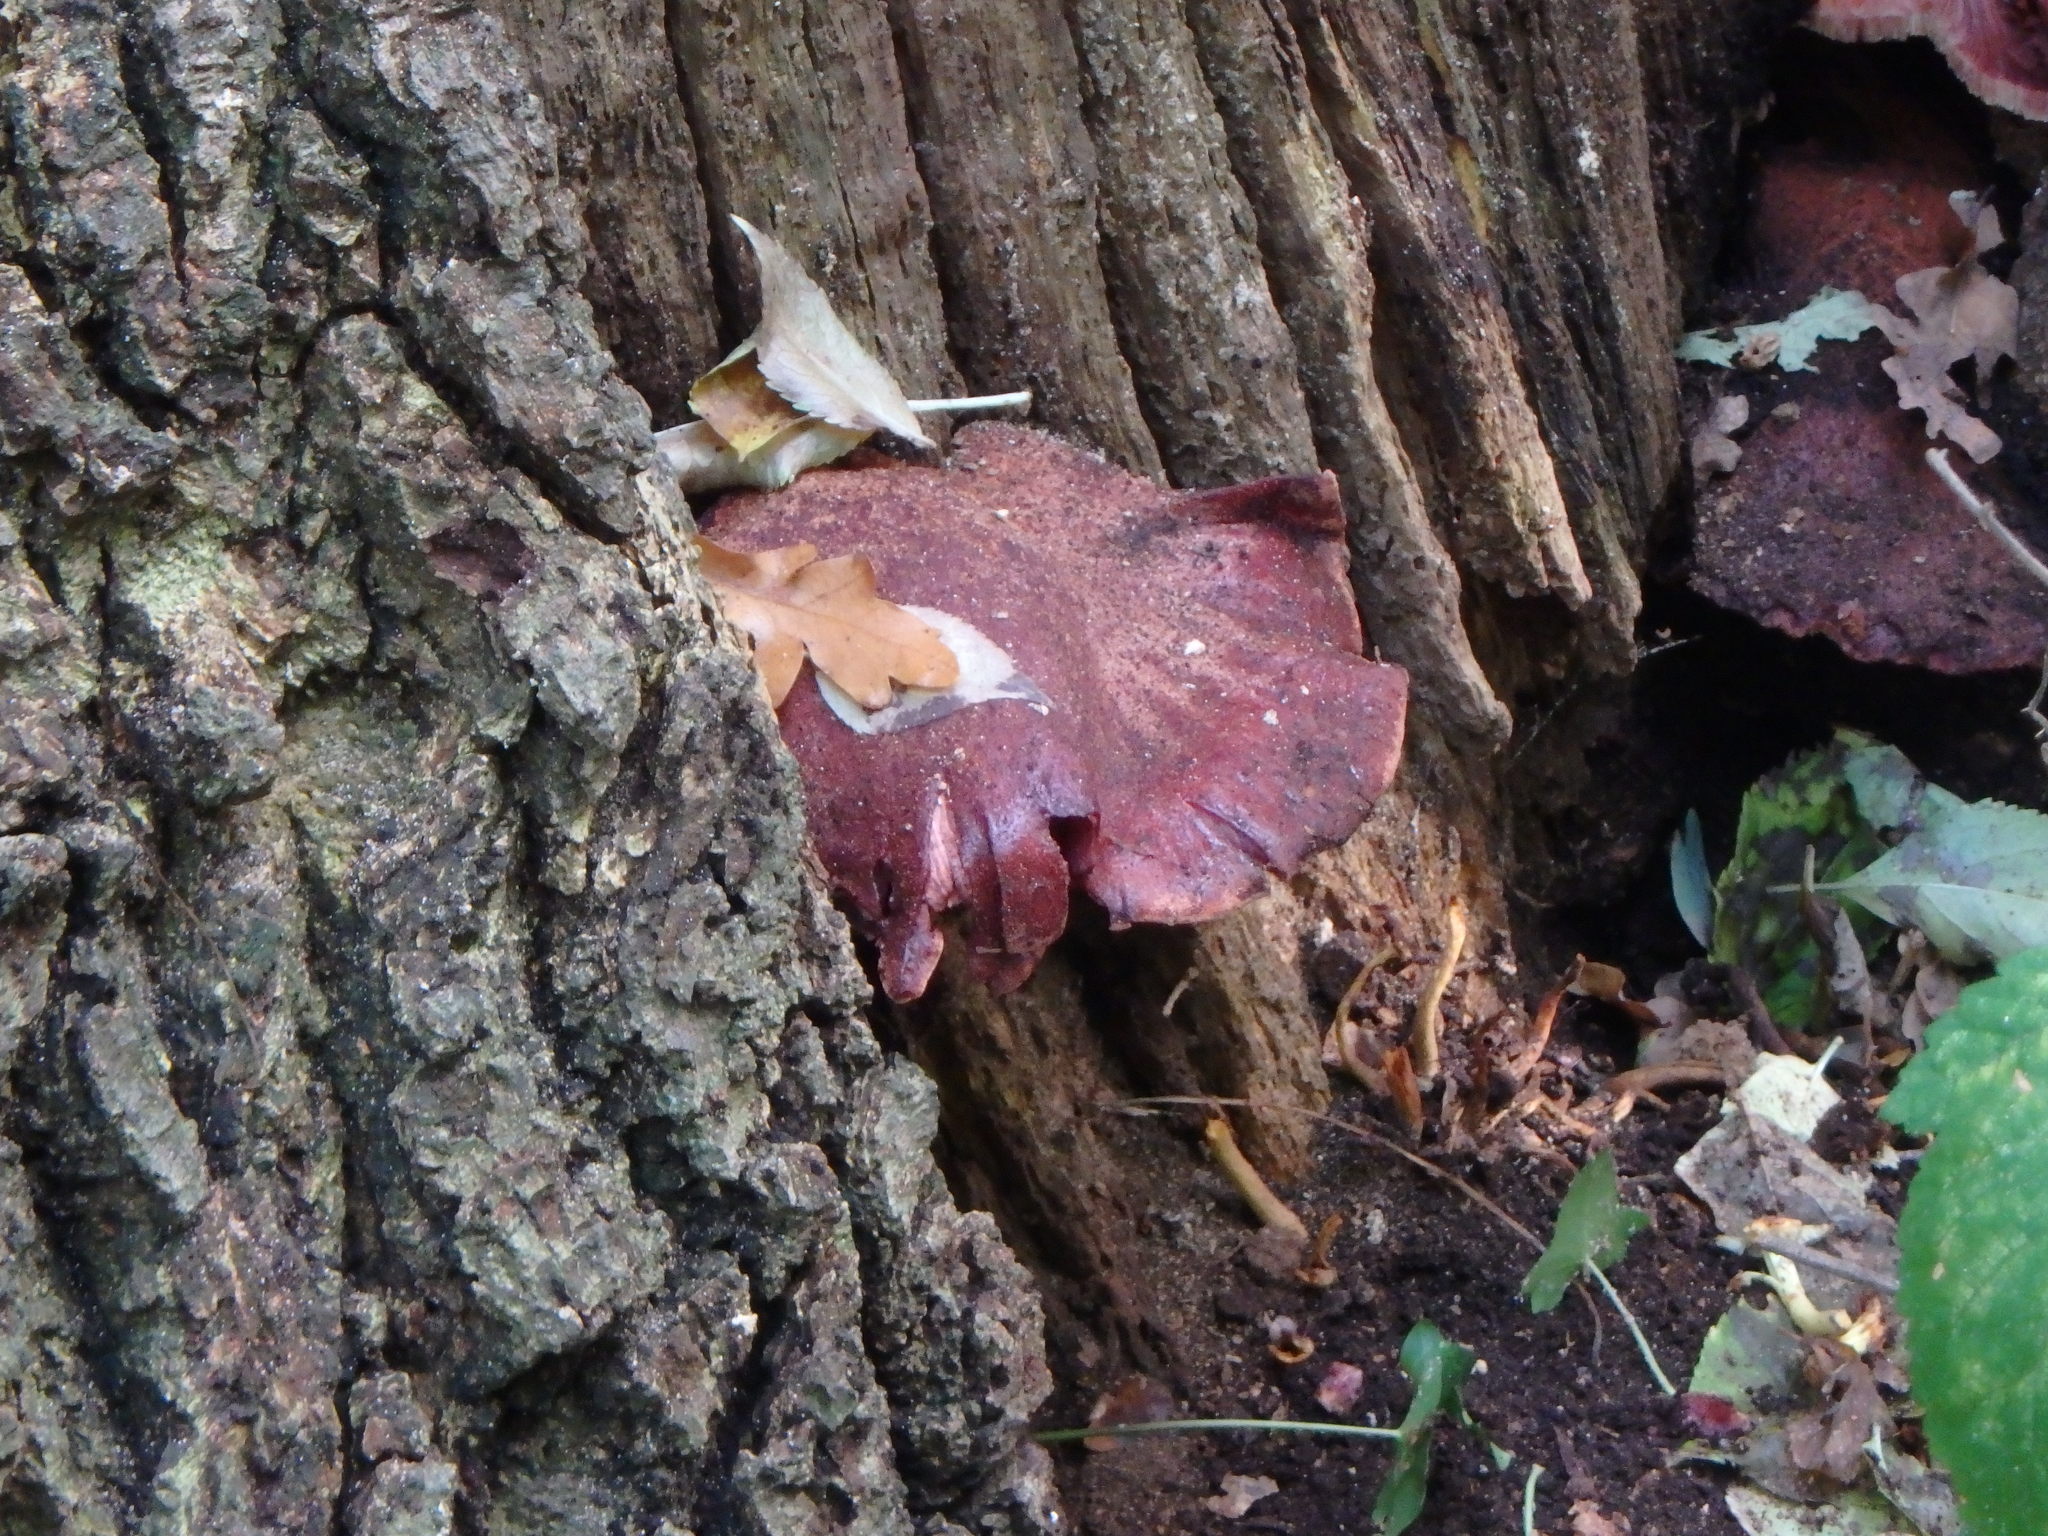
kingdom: Fungi
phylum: Basidiomycota
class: Agaricomycetes
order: Agaricales
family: Fistulinaceae
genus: Fistulina
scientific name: Fistulina hepatica
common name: Beef-steak fungus
